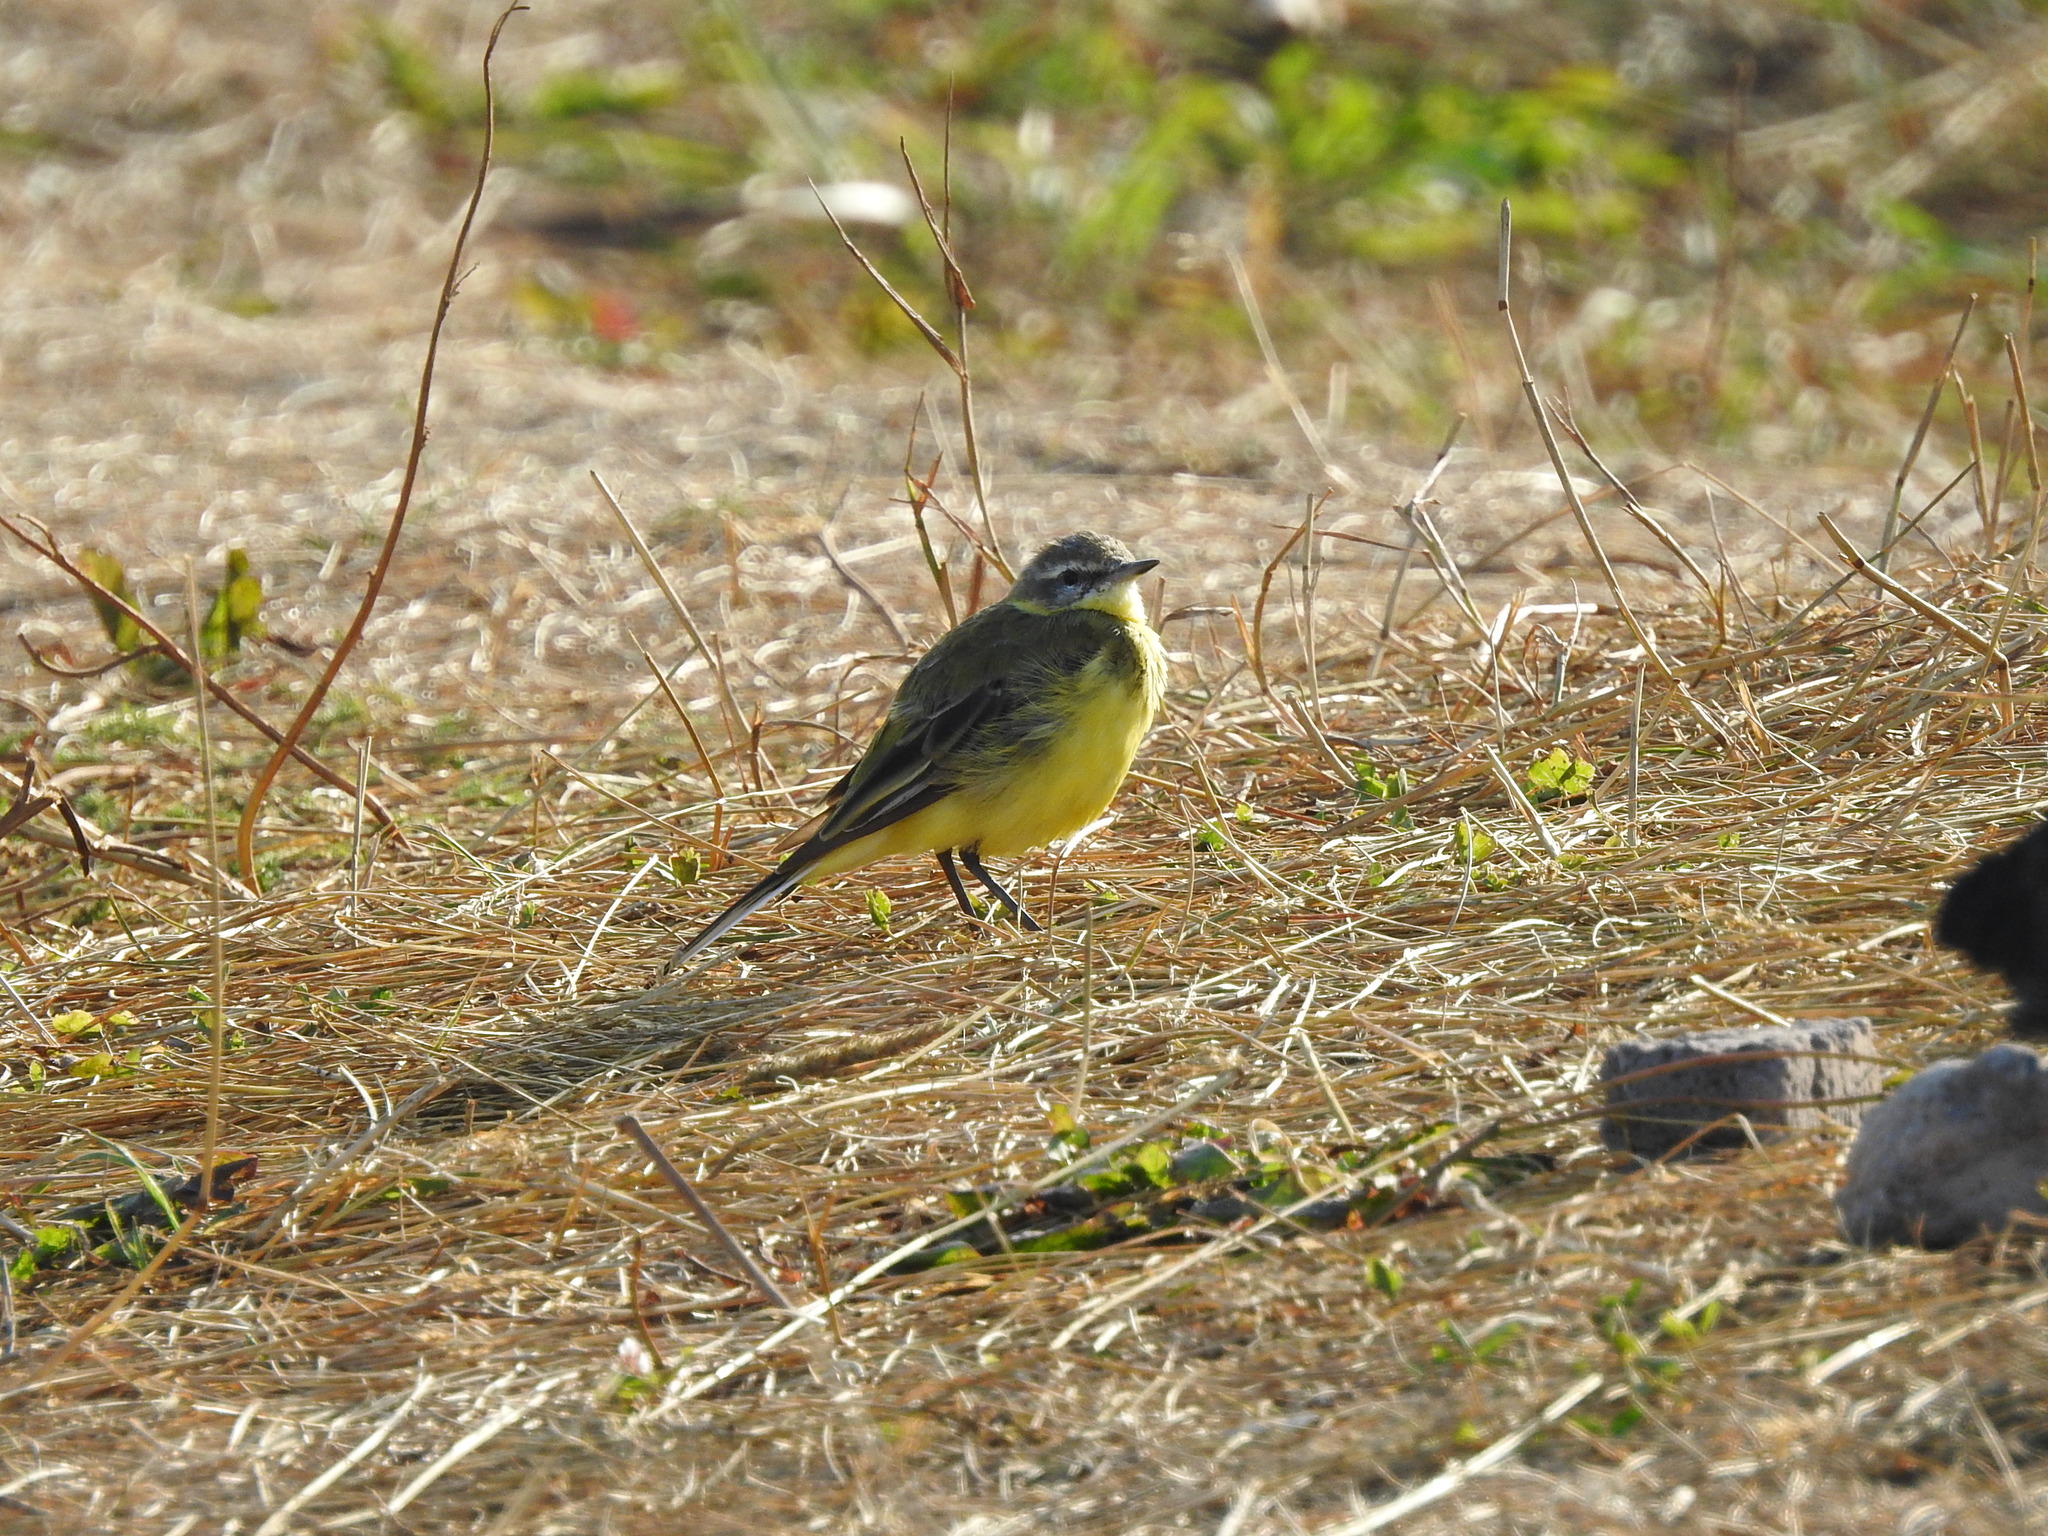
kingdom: Animalia
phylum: Chordata
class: Aves
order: Passeriformes
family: Motacillidae
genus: Motacilla
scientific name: Motacilla flava
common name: Western yellow wagtail
